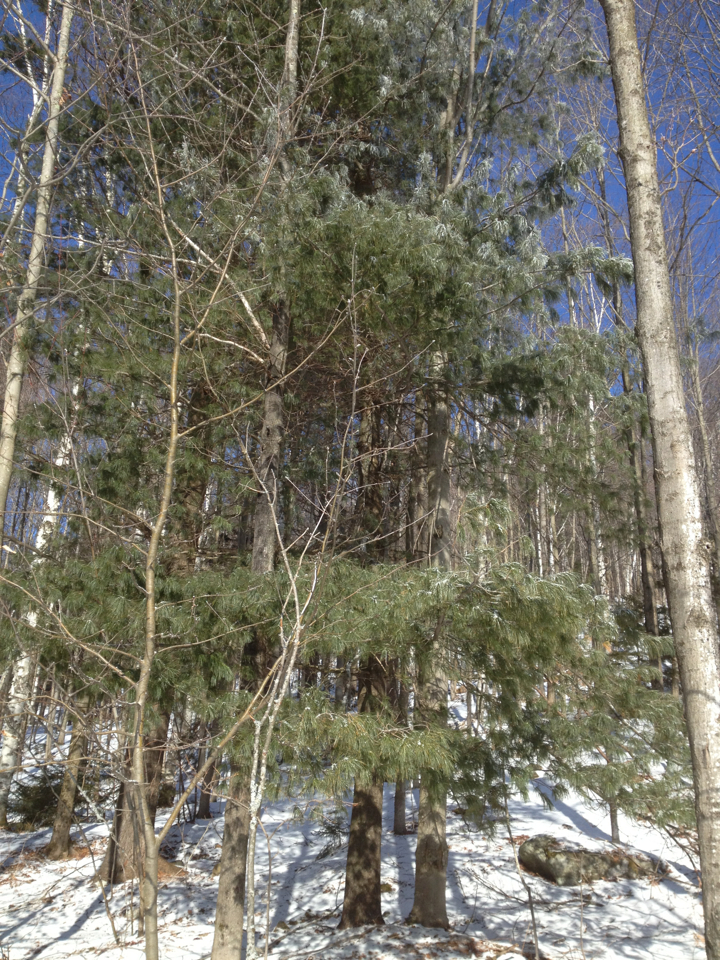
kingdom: Plantae
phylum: Tracheophyta
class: Pinopsida
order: Pinales
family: Pinaceae
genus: Pinus
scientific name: Pinus strobus
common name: Weymouth pine
